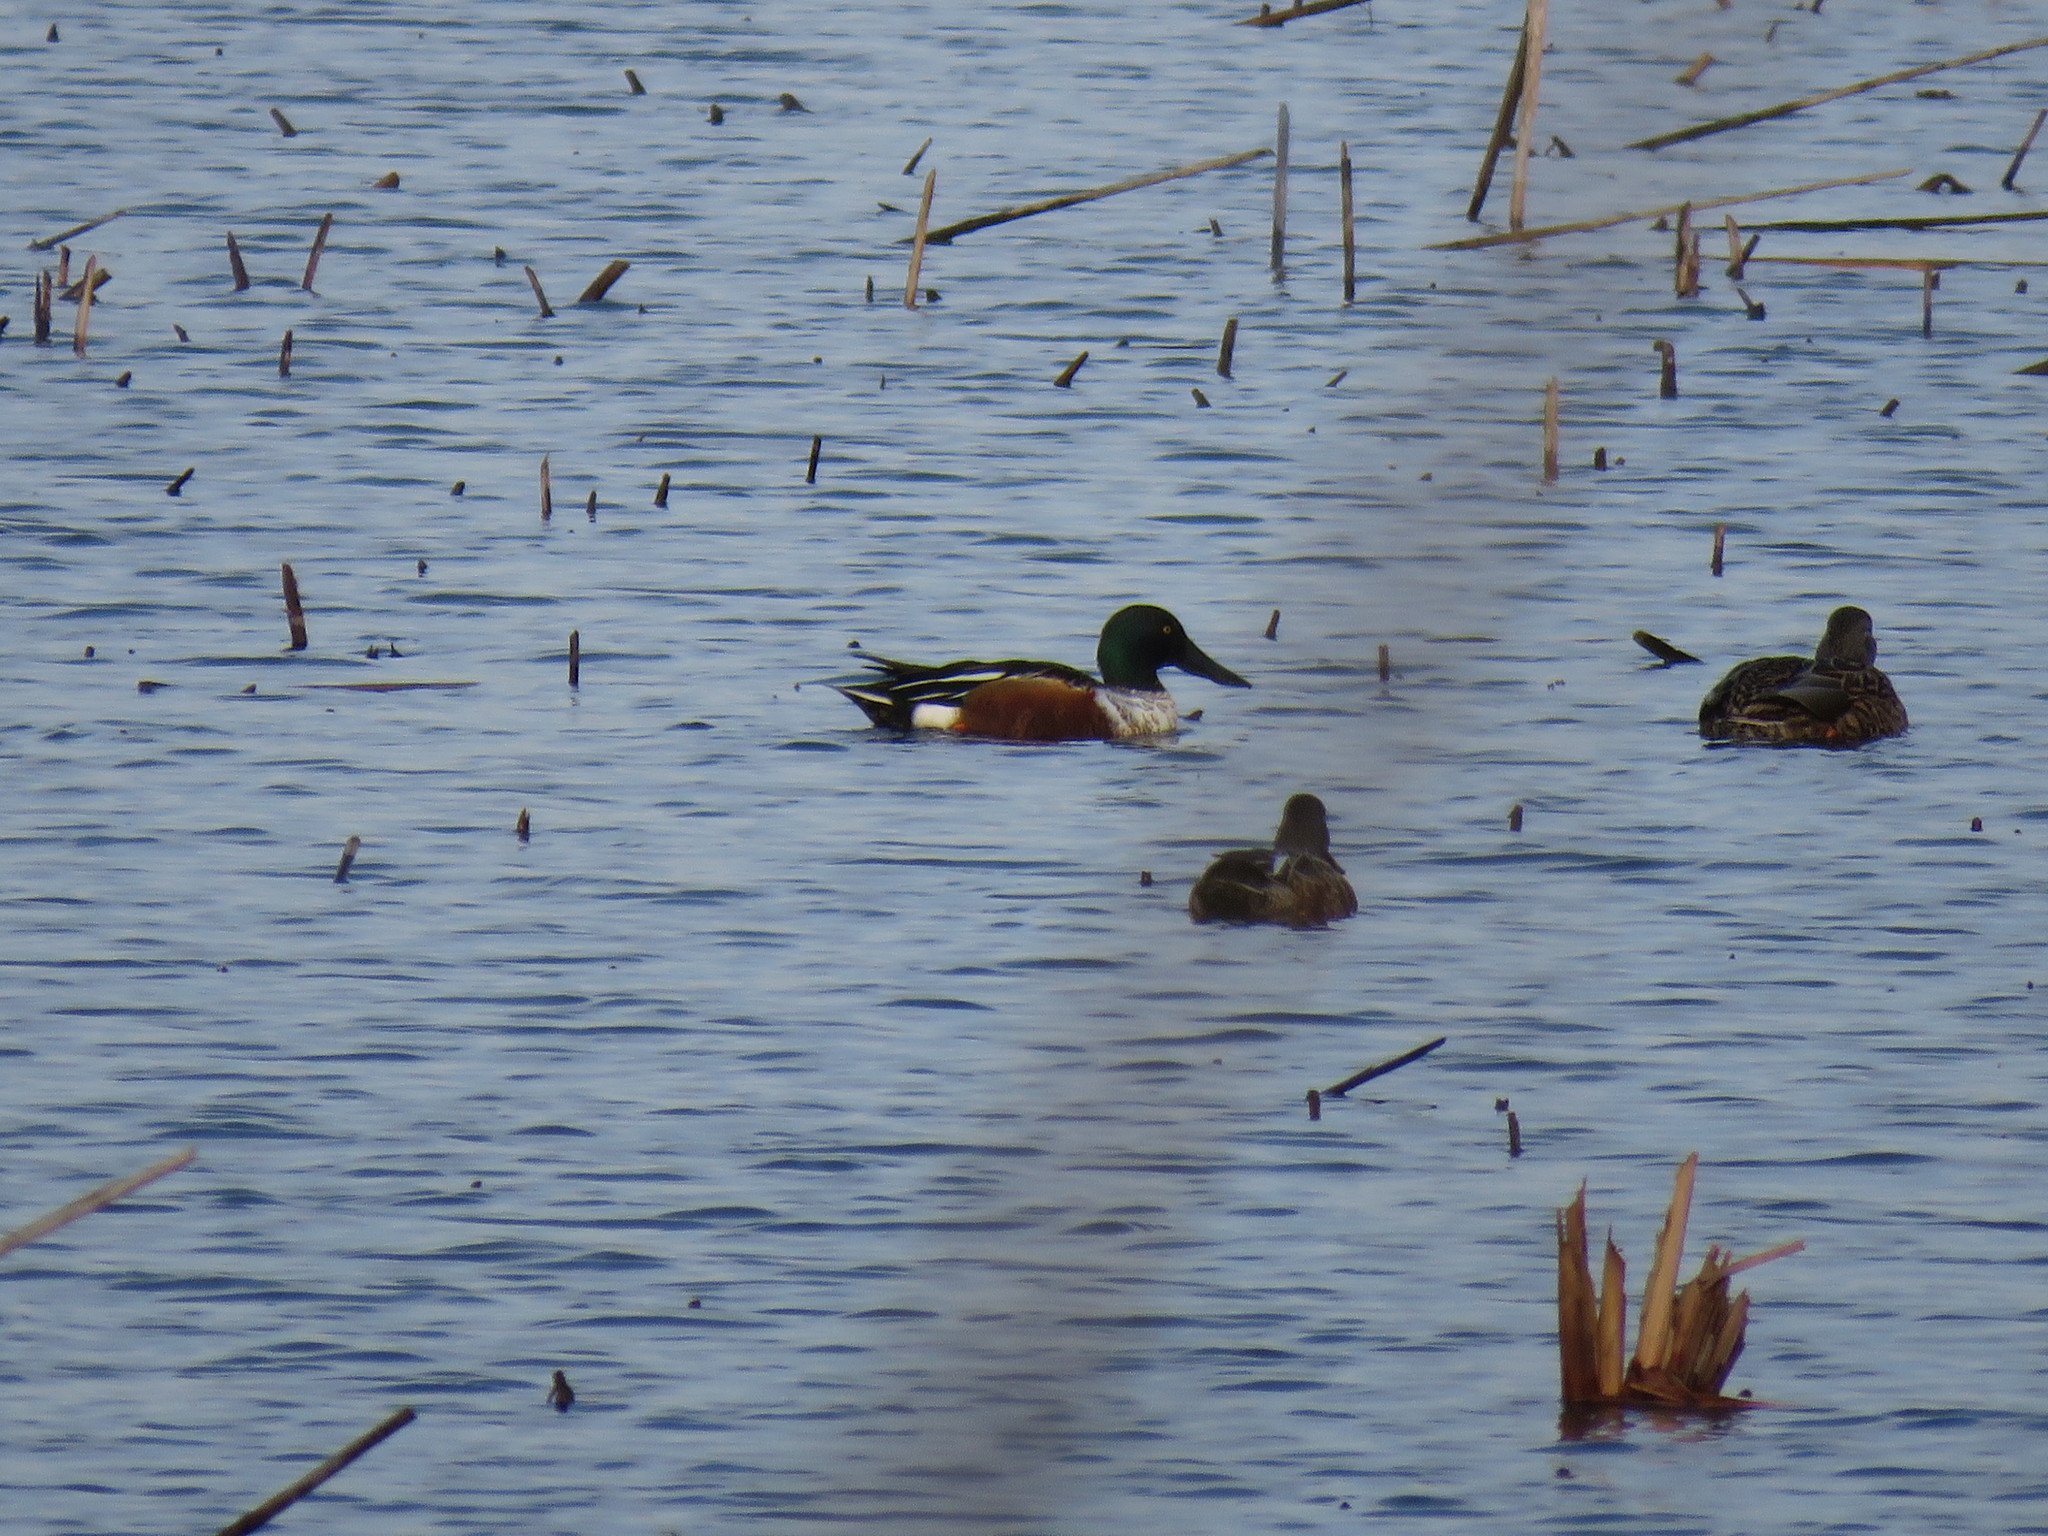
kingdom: Animalia
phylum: Chordata
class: Aves
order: Anseriformes
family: Anatidae
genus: Spatula
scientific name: Spatula clypeata
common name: Northern shoveler
